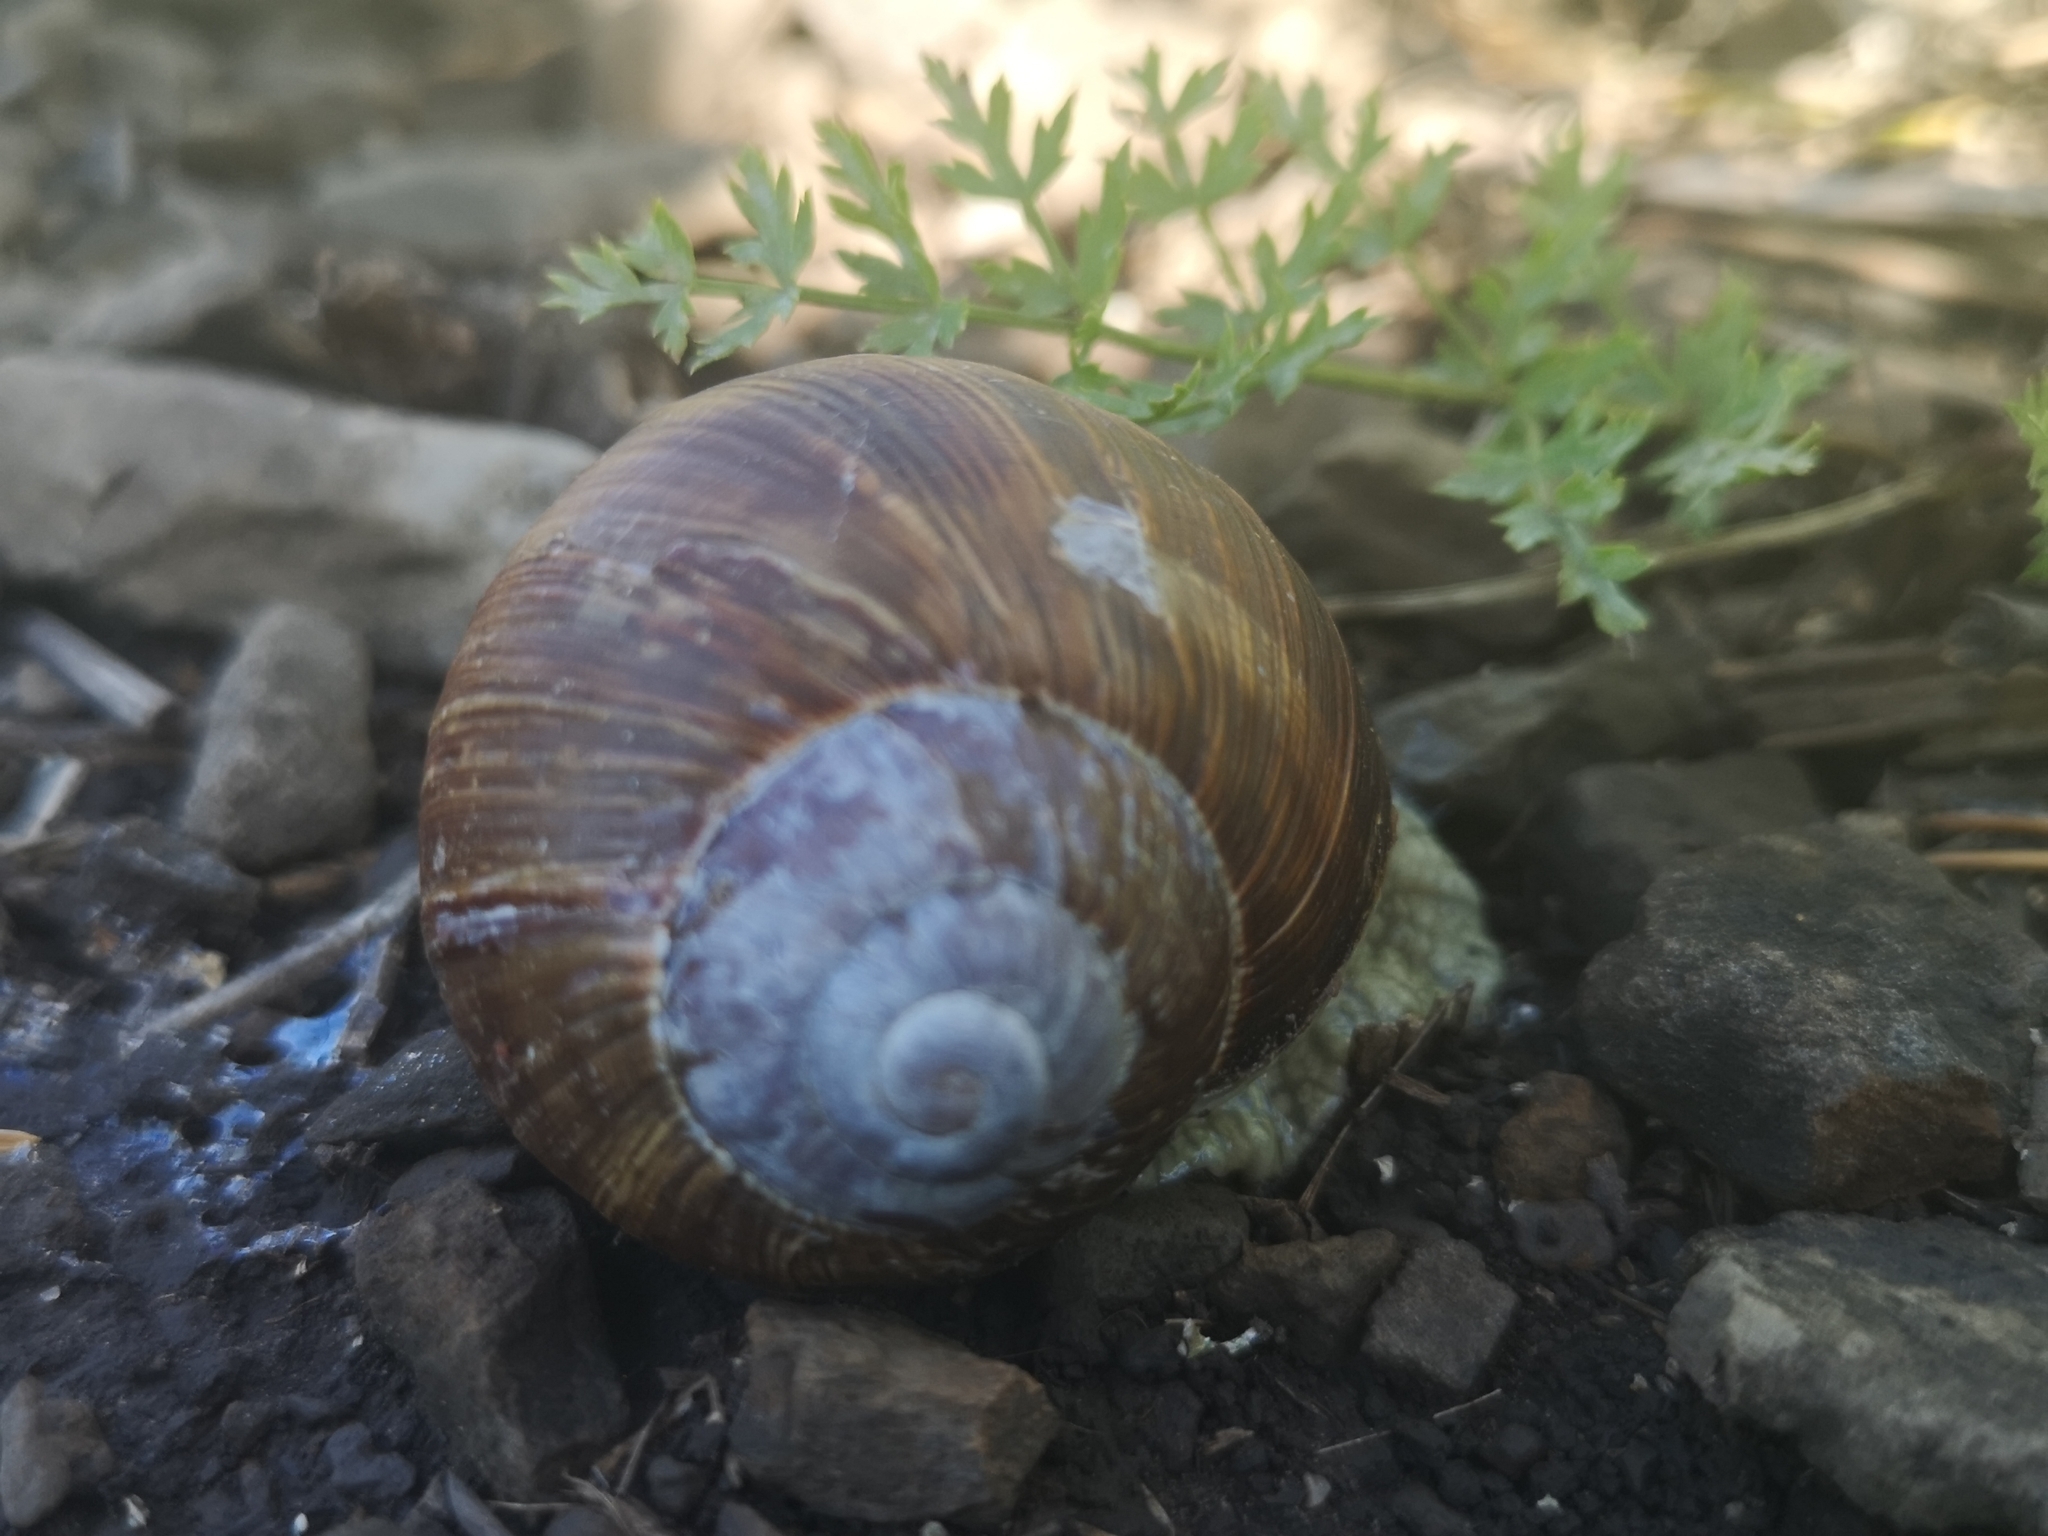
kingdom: Animalia
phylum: Mollusca
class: Gastropoda
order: Stylommatophora
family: Helicidae
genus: Helix
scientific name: Helix pomatia
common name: Roman snail
